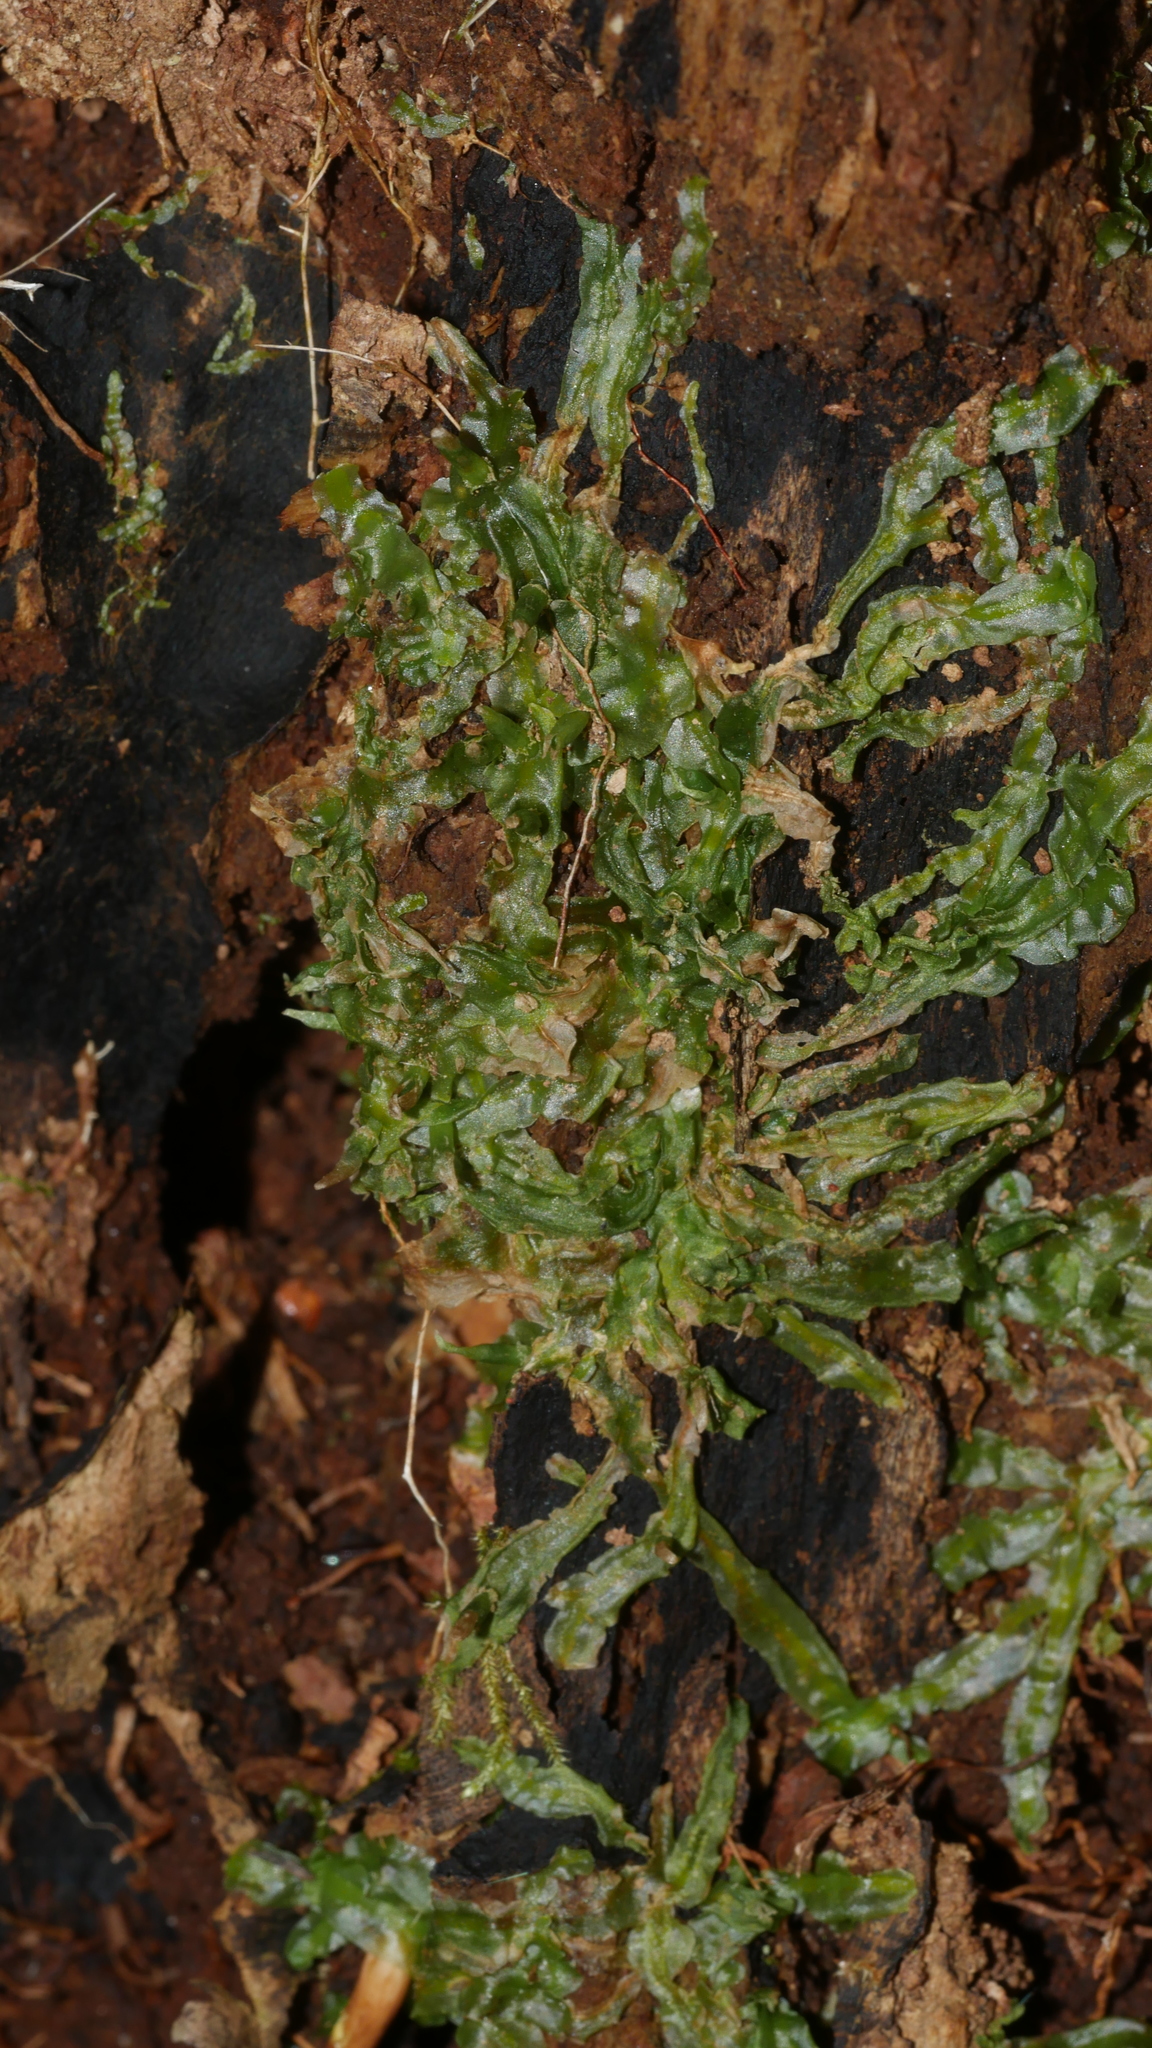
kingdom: Plantae
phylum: Marchantiophyta
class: Jungermanniopsida
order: Pallaviciniales
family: Pallaviciniaceae
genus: Pallavicinia
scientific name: Pallavicinia lyellii
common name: Veilwort
